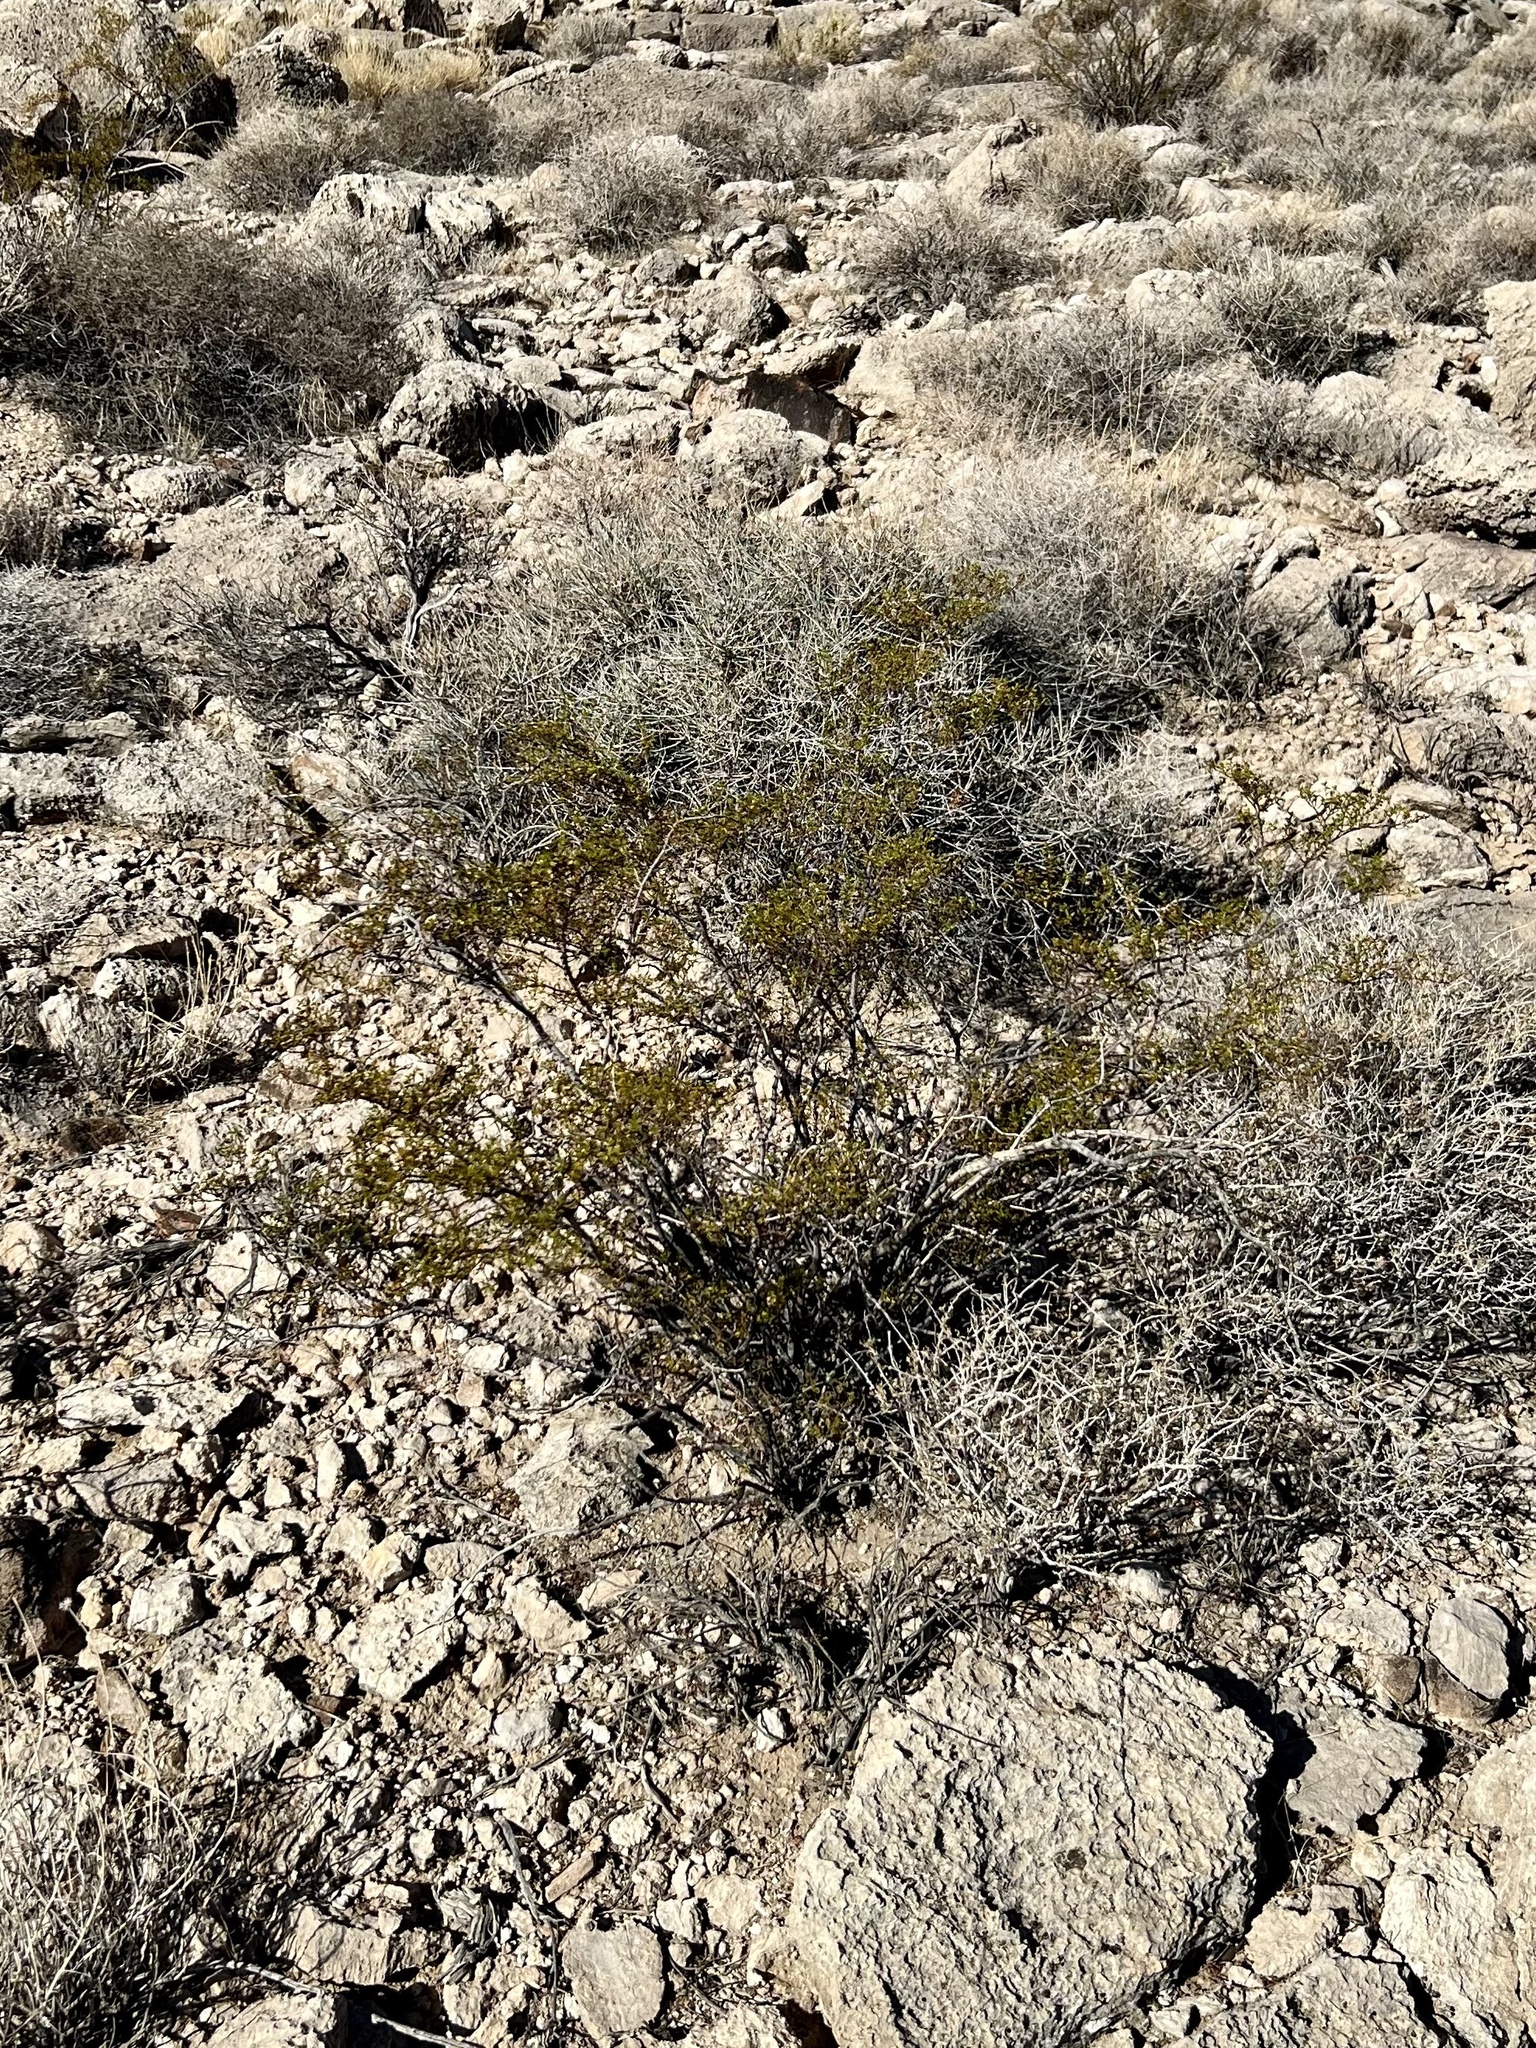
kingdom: Plantae
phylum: Tracheophyta
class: Magnoliopsida
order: Zygophyllales
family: Zygophyllaceae
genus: Larrea
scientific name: Larrea tridentata
